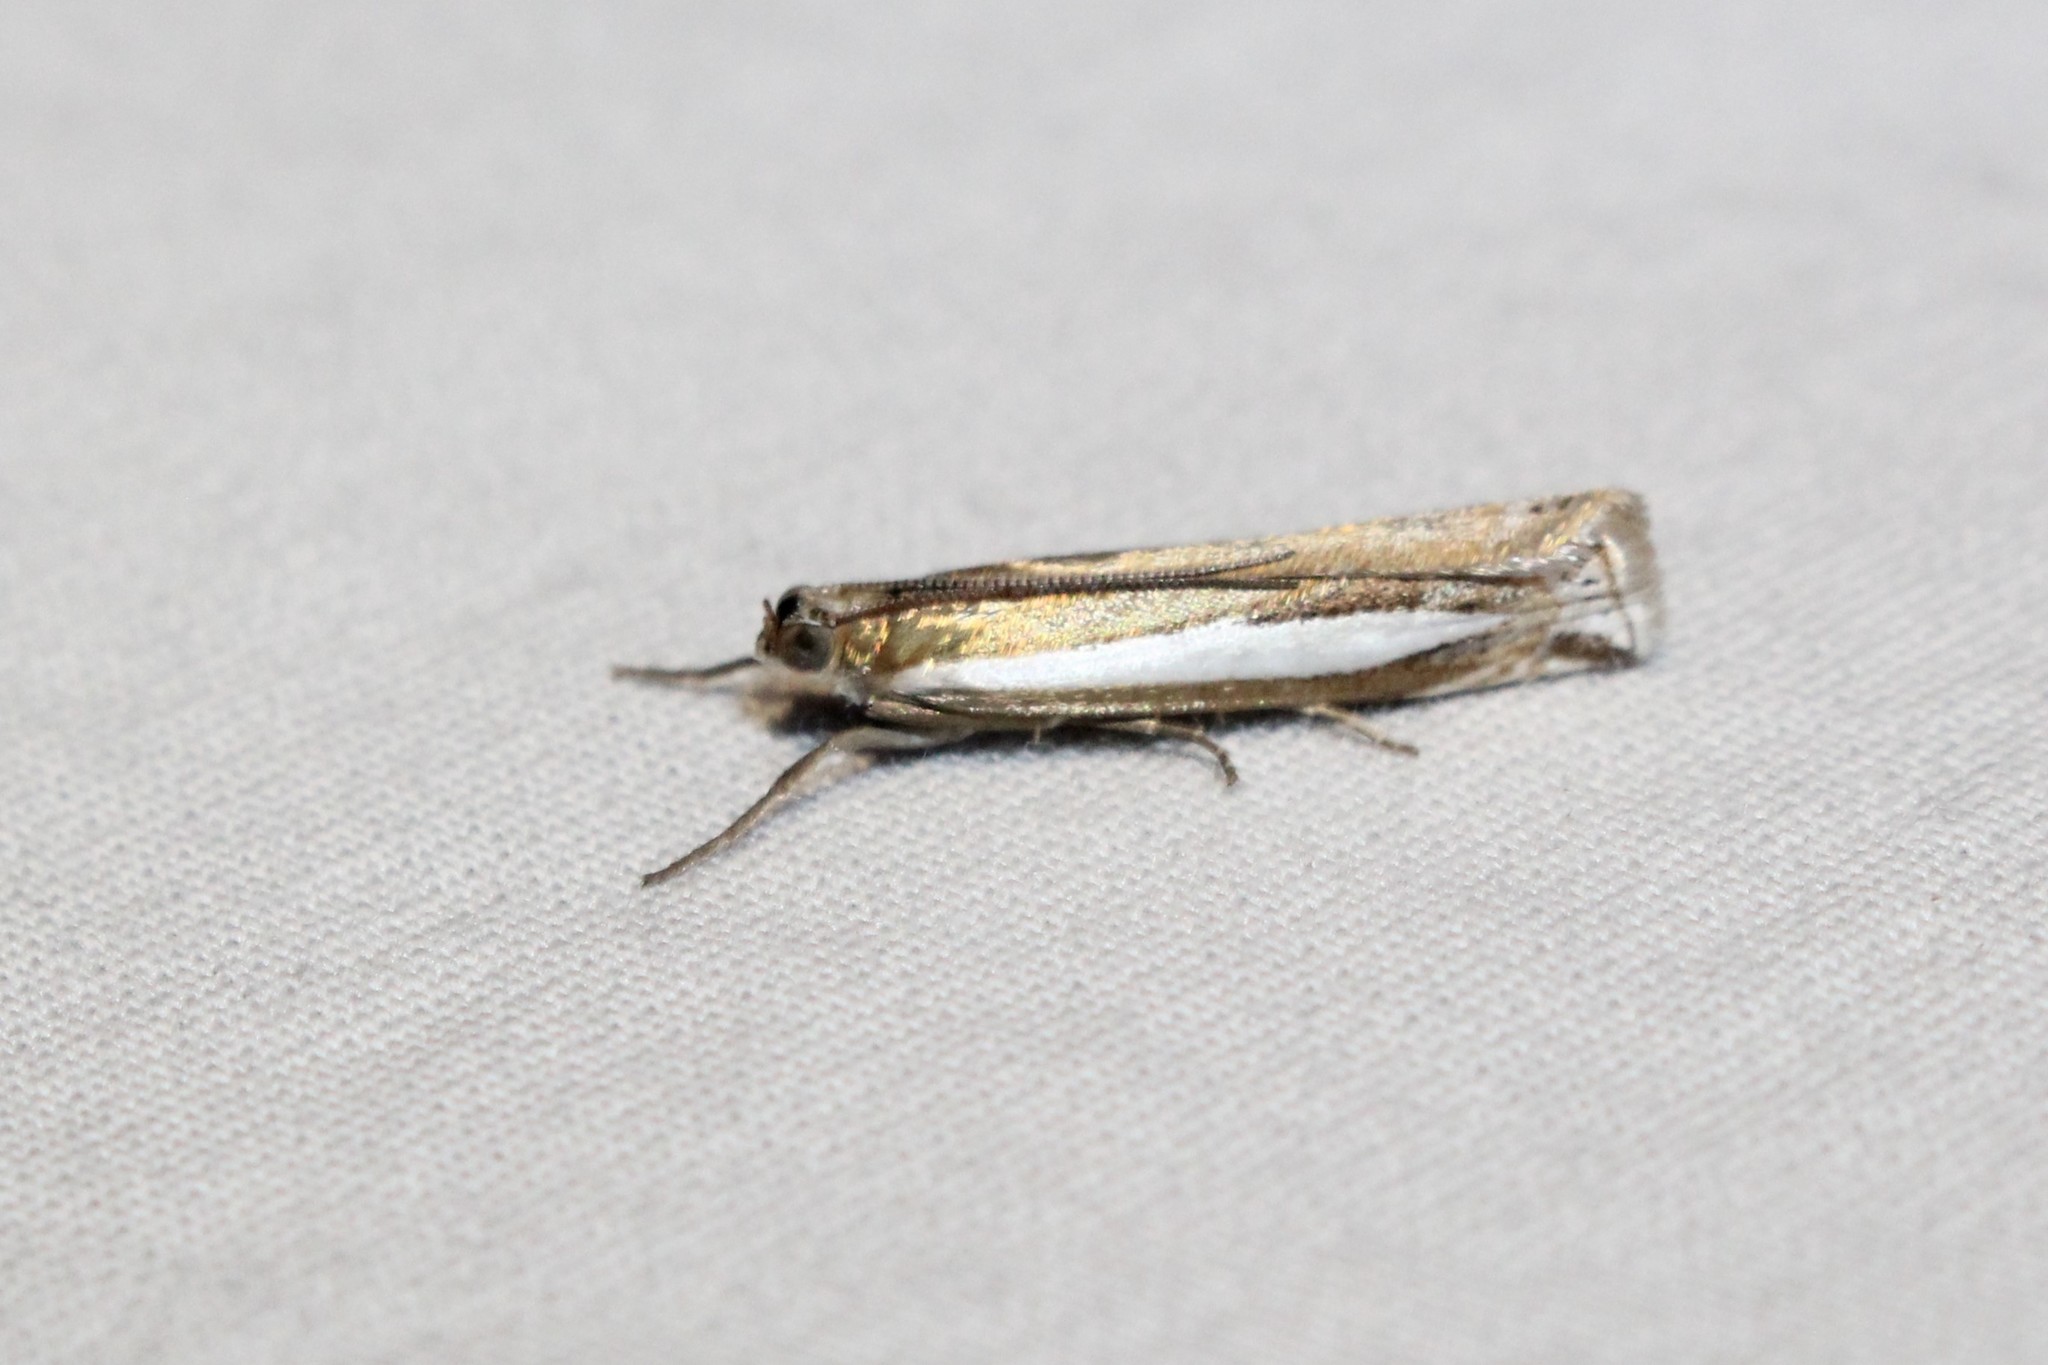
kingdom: Animalia
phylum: Arthropoda
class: Insecta
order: Lepidoptera
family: Crambidae
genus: Crambus
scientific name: Crambus praefectellus
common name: Common grass-veneer
